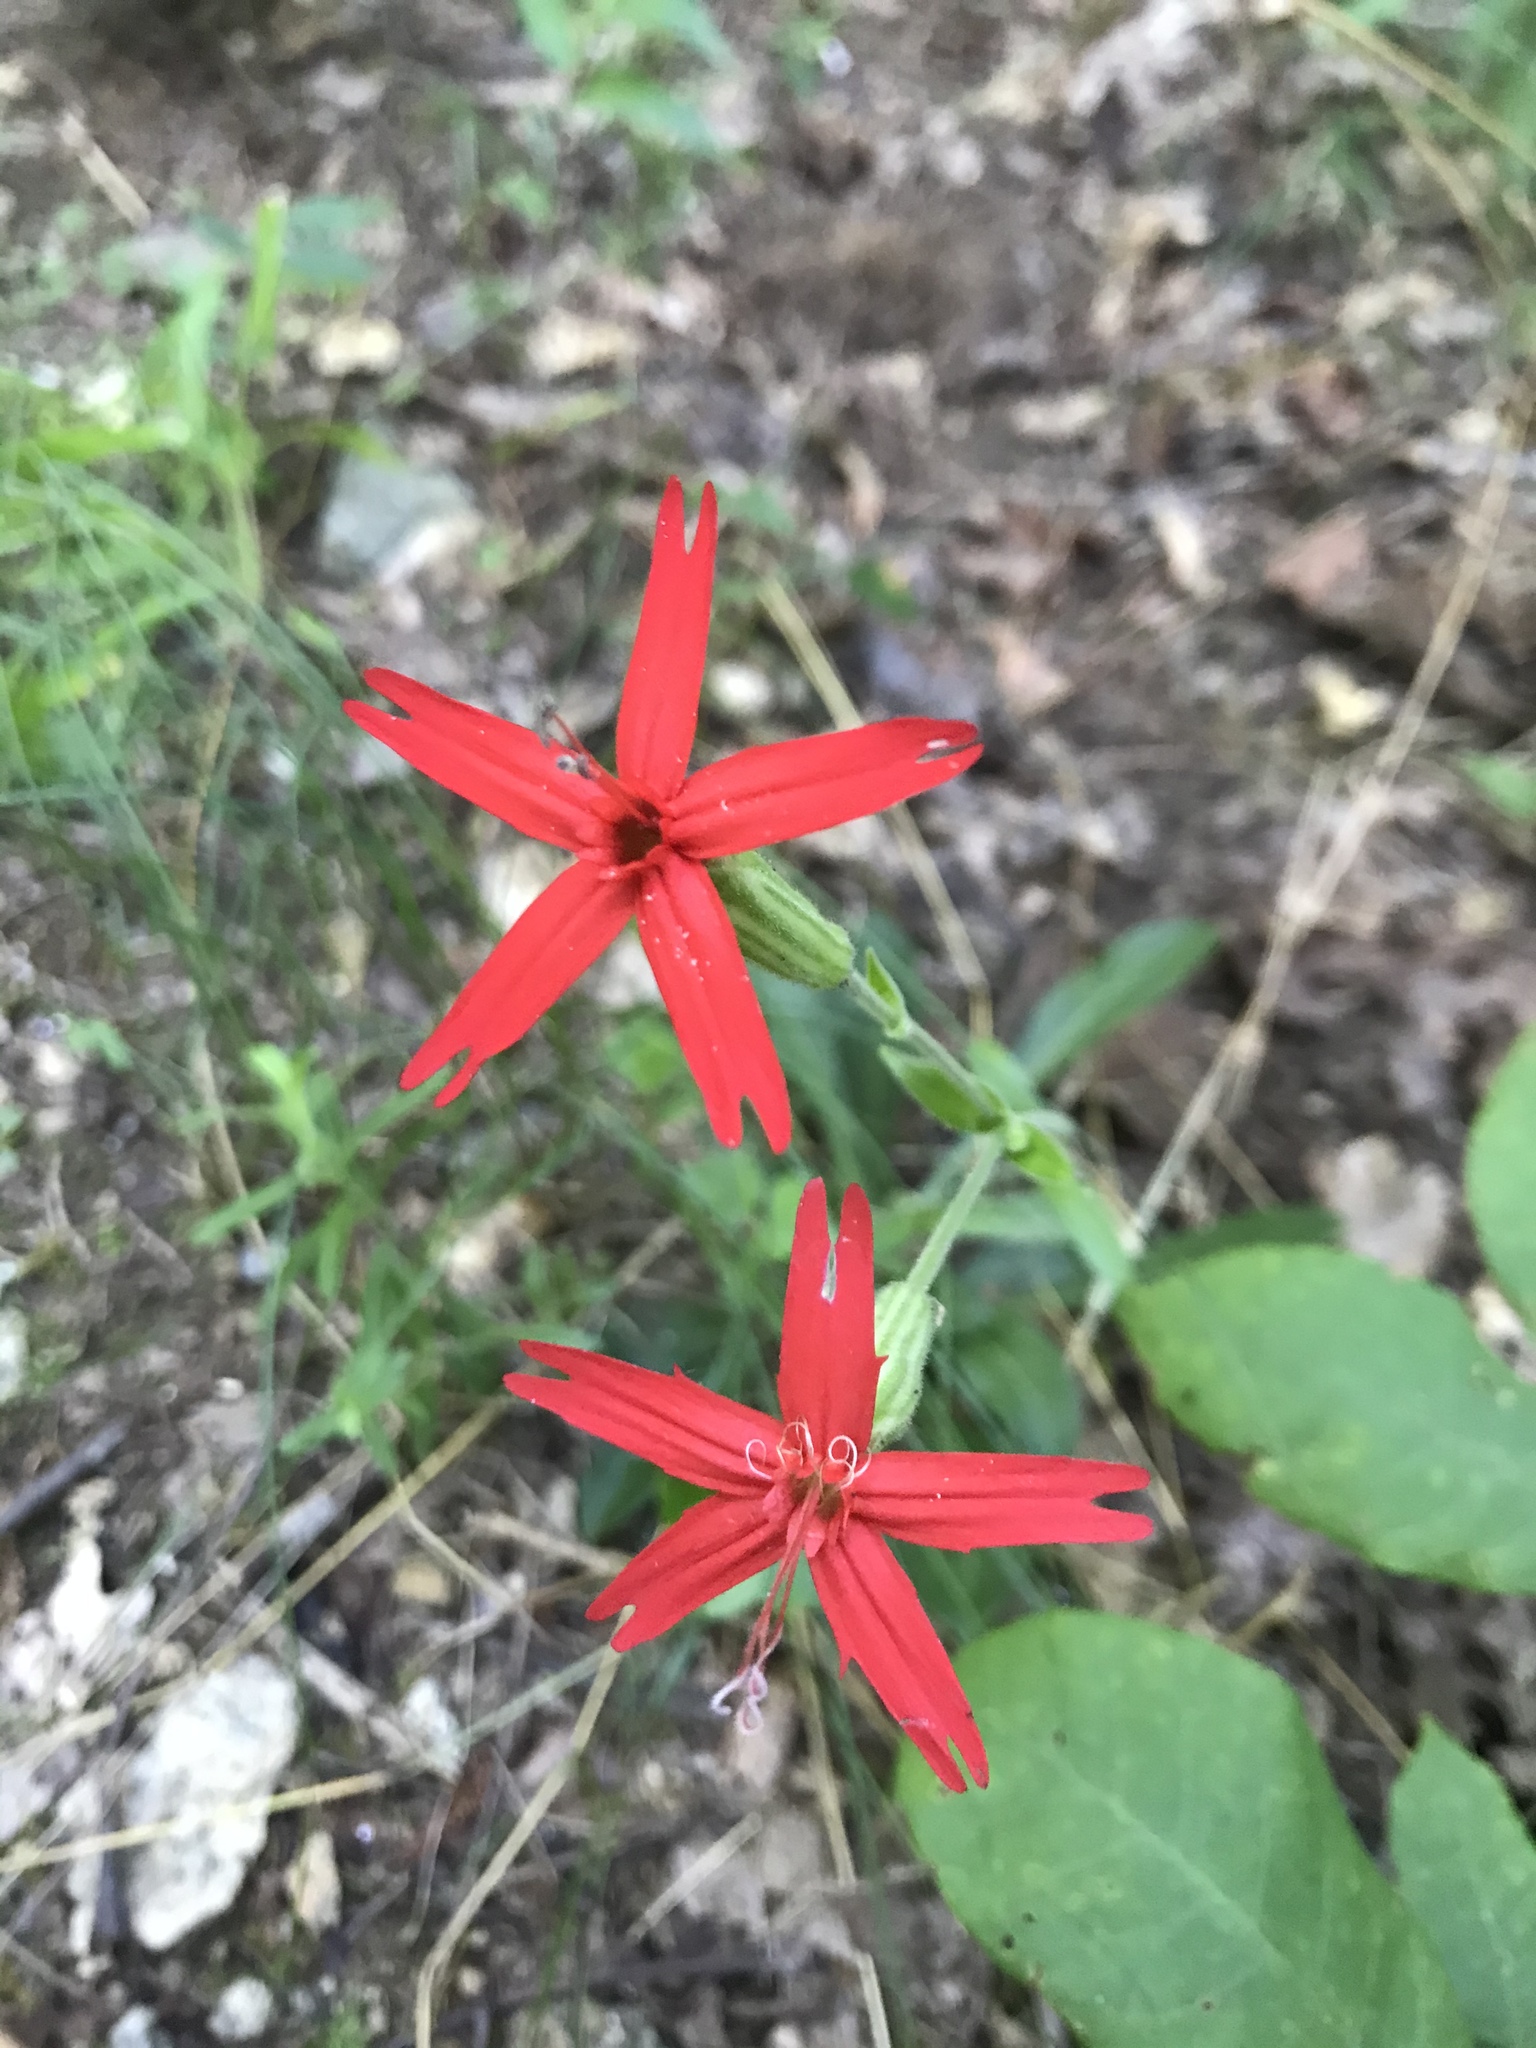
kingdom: Plantae
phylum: Tracheophyta
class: Magnoliopsida
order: Caryophyllales
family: Caryophyllaceae
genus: Silene
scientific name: Silene virginica
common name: Fire-pink
